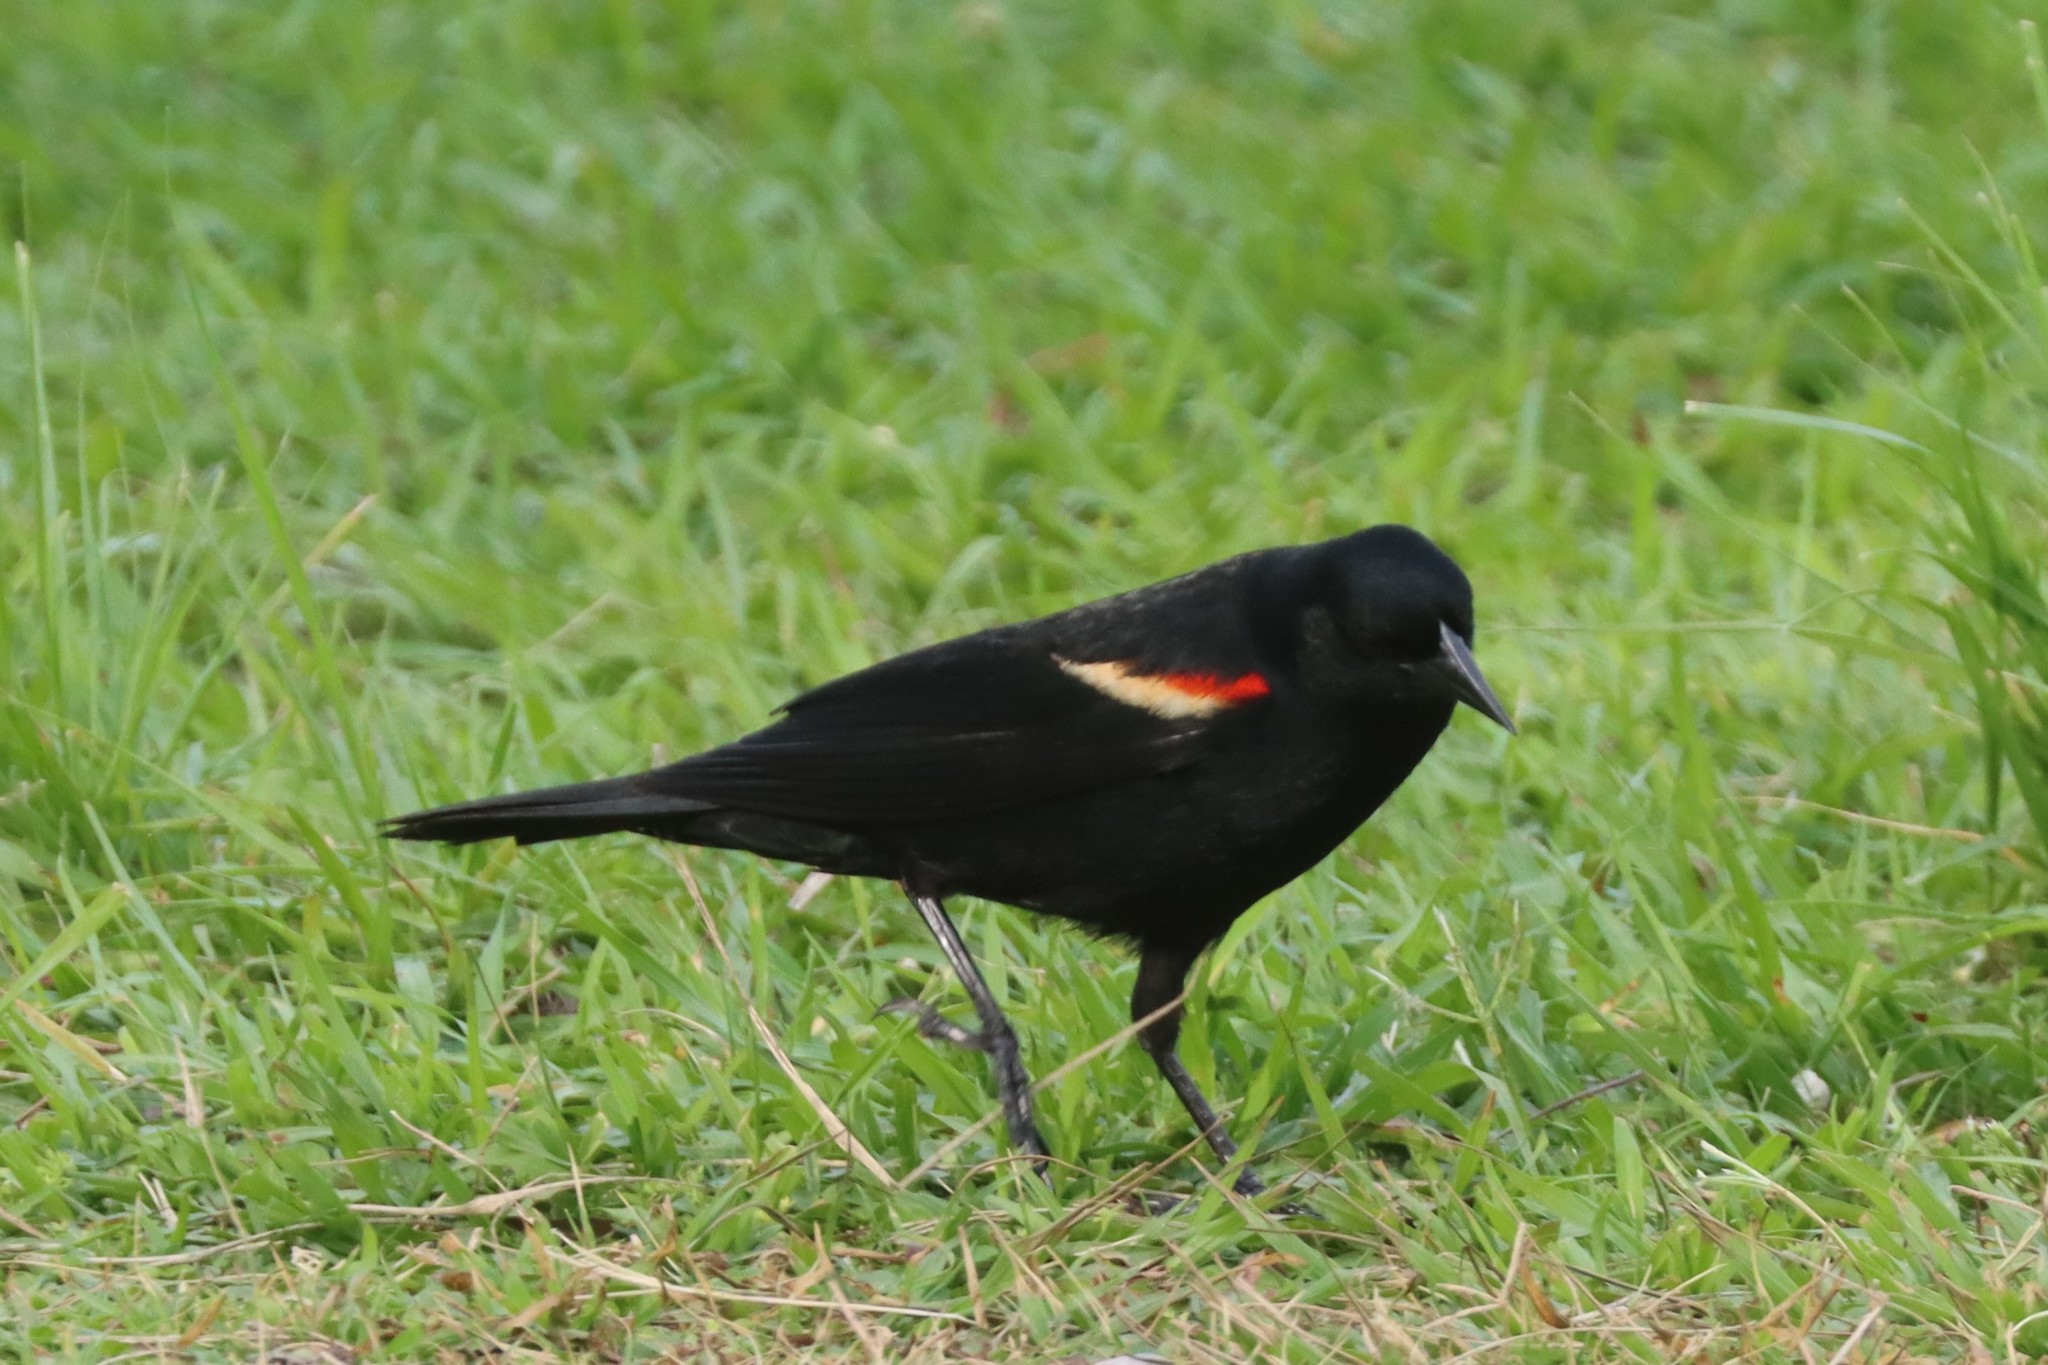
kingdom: Animalia
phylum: Chordata
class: Aves
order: Passeriformes
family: Icteridae
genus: Agelaius
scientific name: Agelaius phoeniceus
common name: Red-winged blackbird
